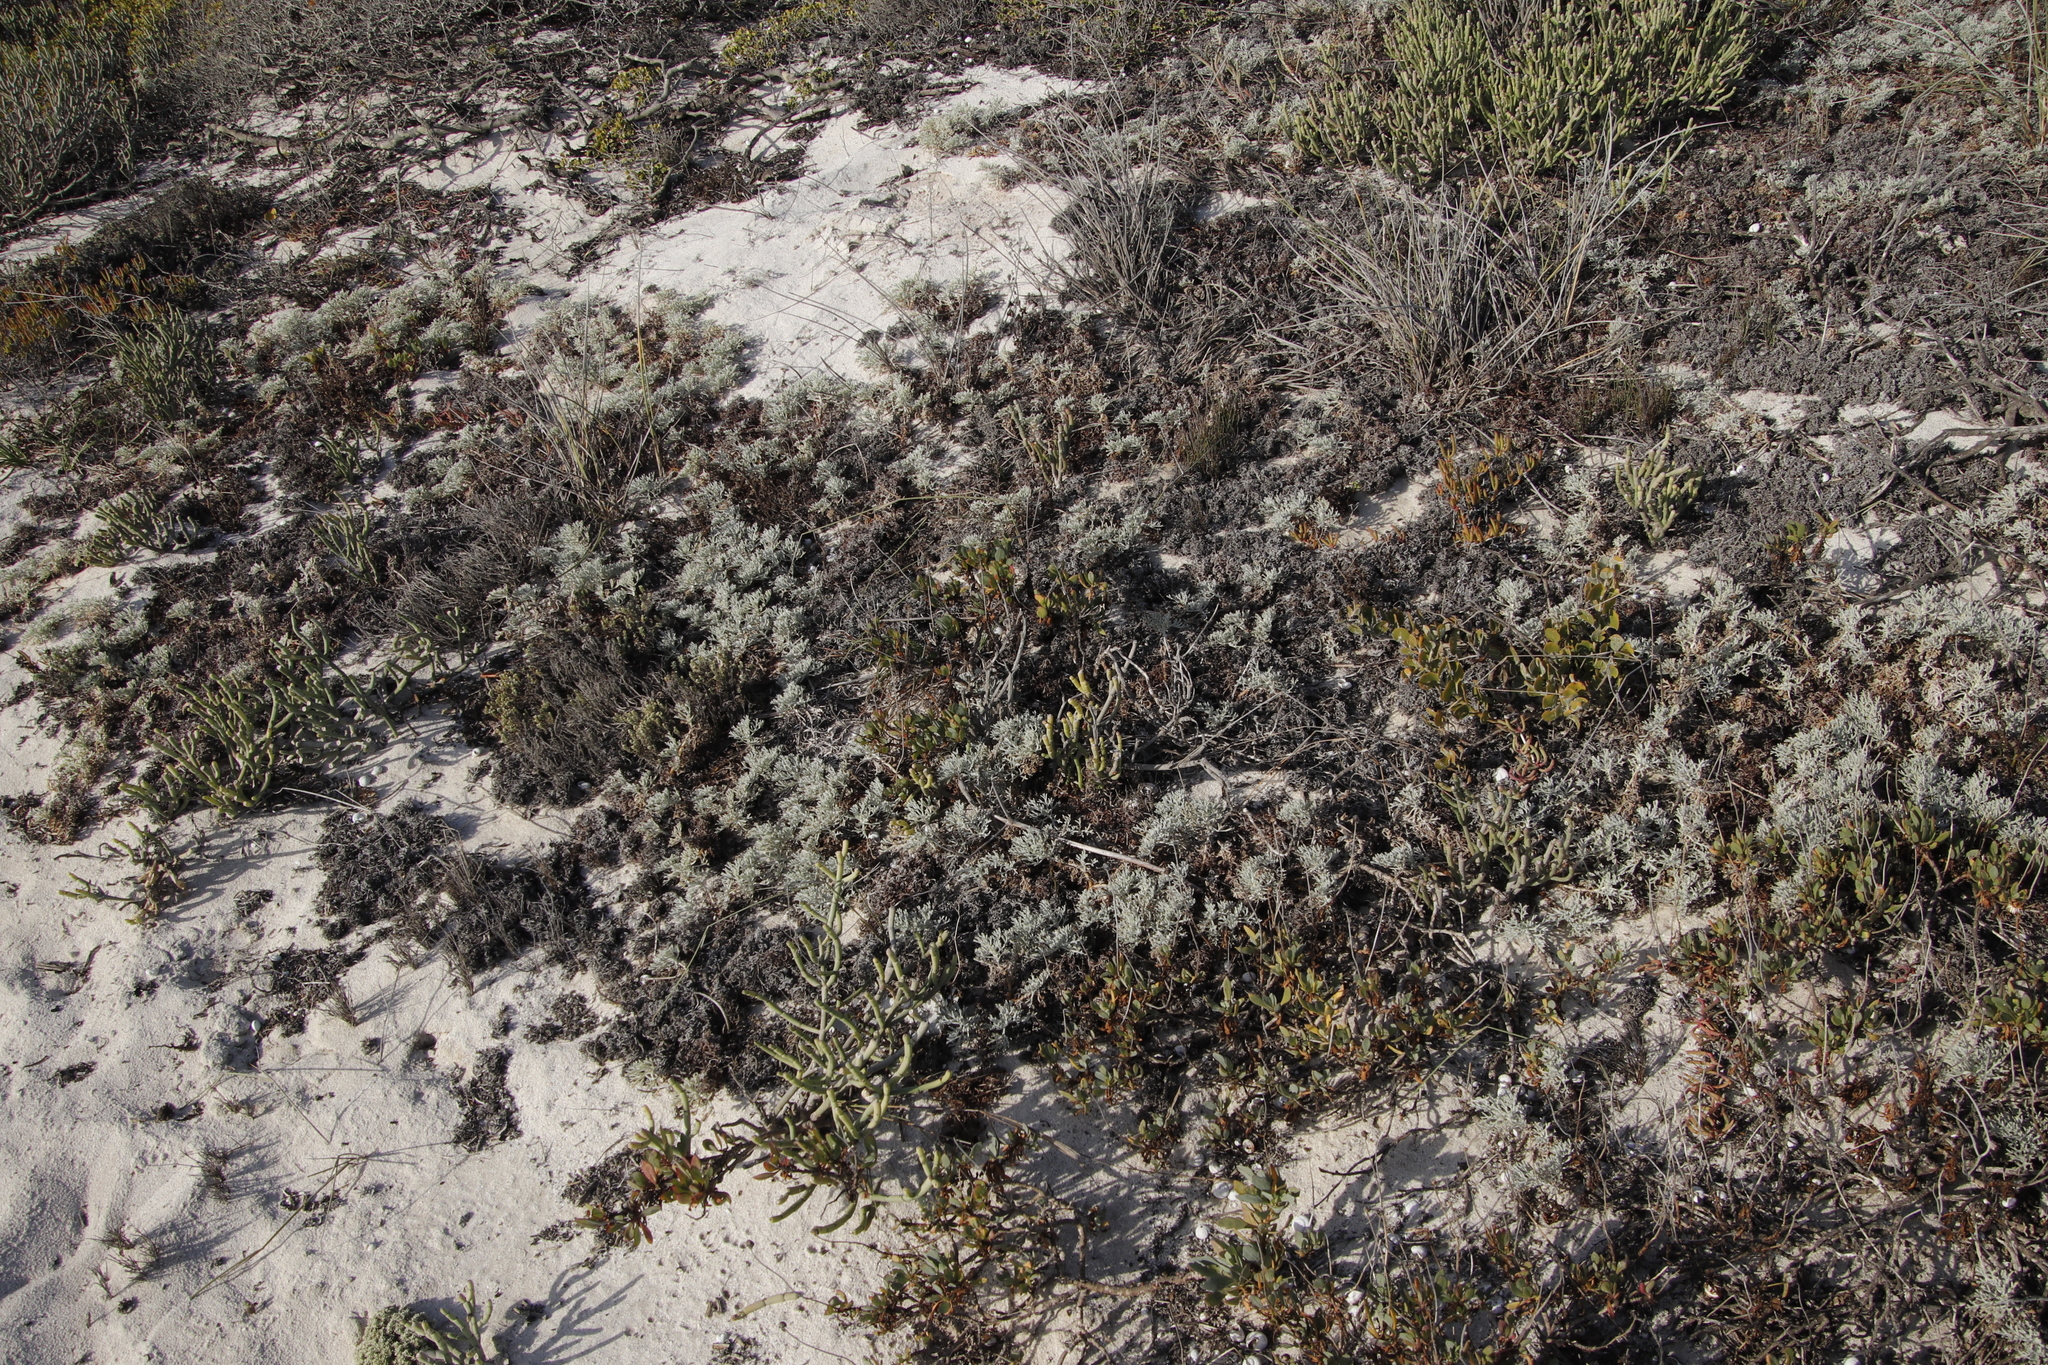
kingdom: Plantae
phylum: Tracheophyta
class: Magnoliopsida
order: Malvales
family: Neuradaceae
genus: Grielum
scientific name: Grielum grandiflorum
